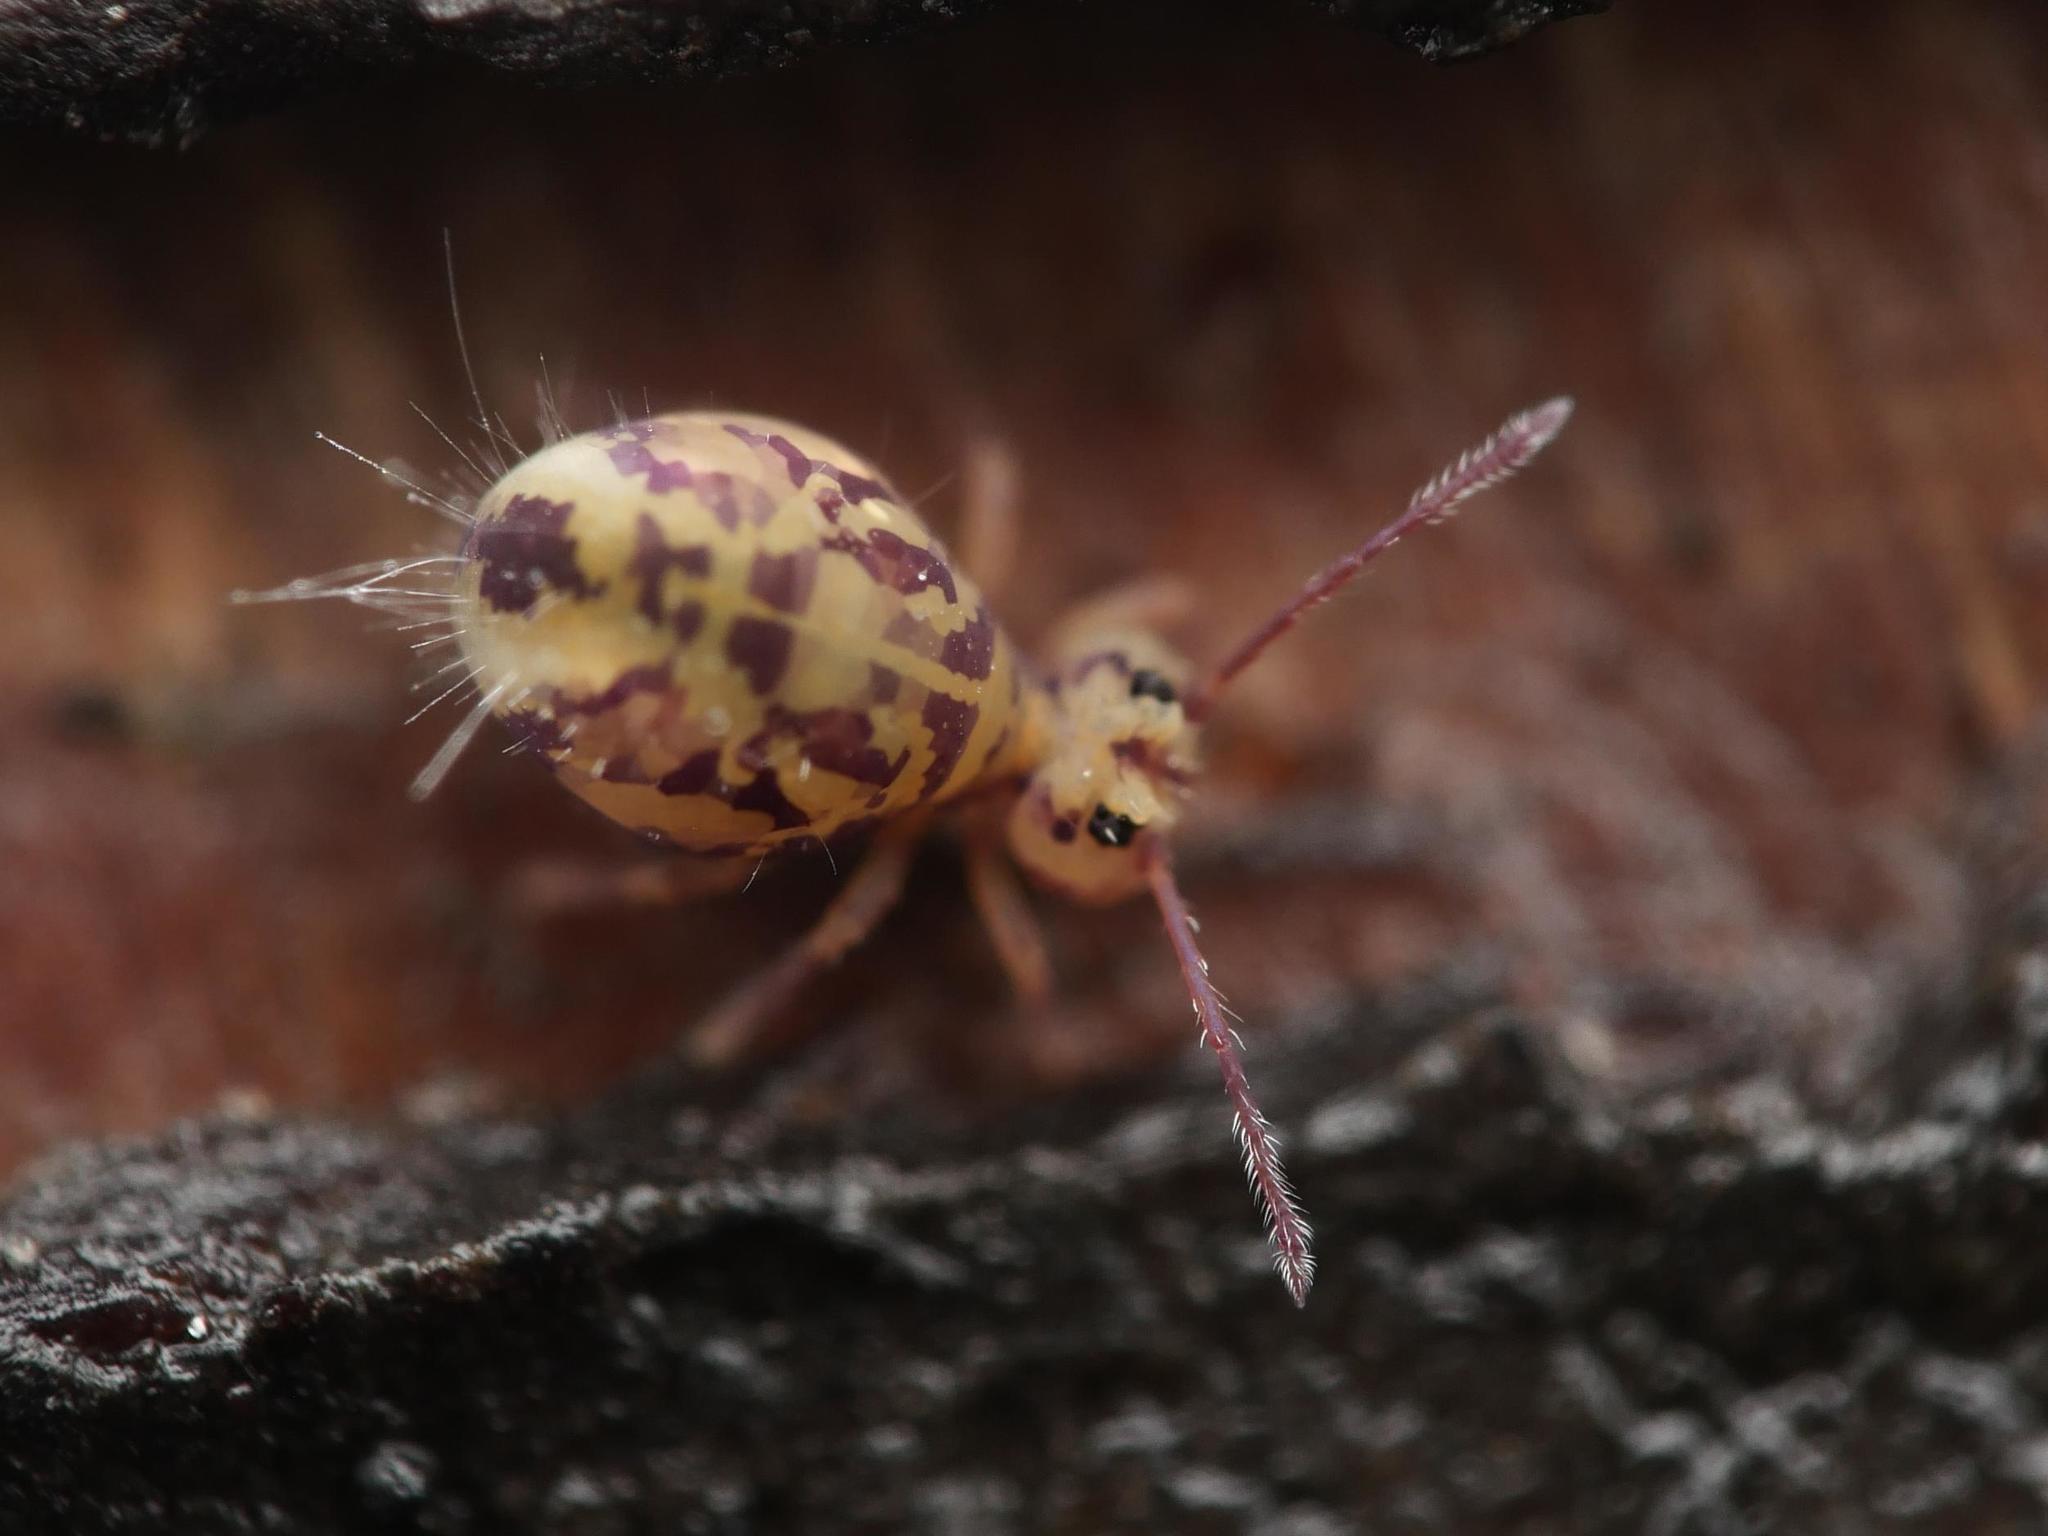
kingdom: Animalia
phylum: Arthropoda
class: Collembola
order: Symphypleona
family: Dicyrtomidae
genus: Dicyrtomina
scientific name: Dicyrtomina ornata
